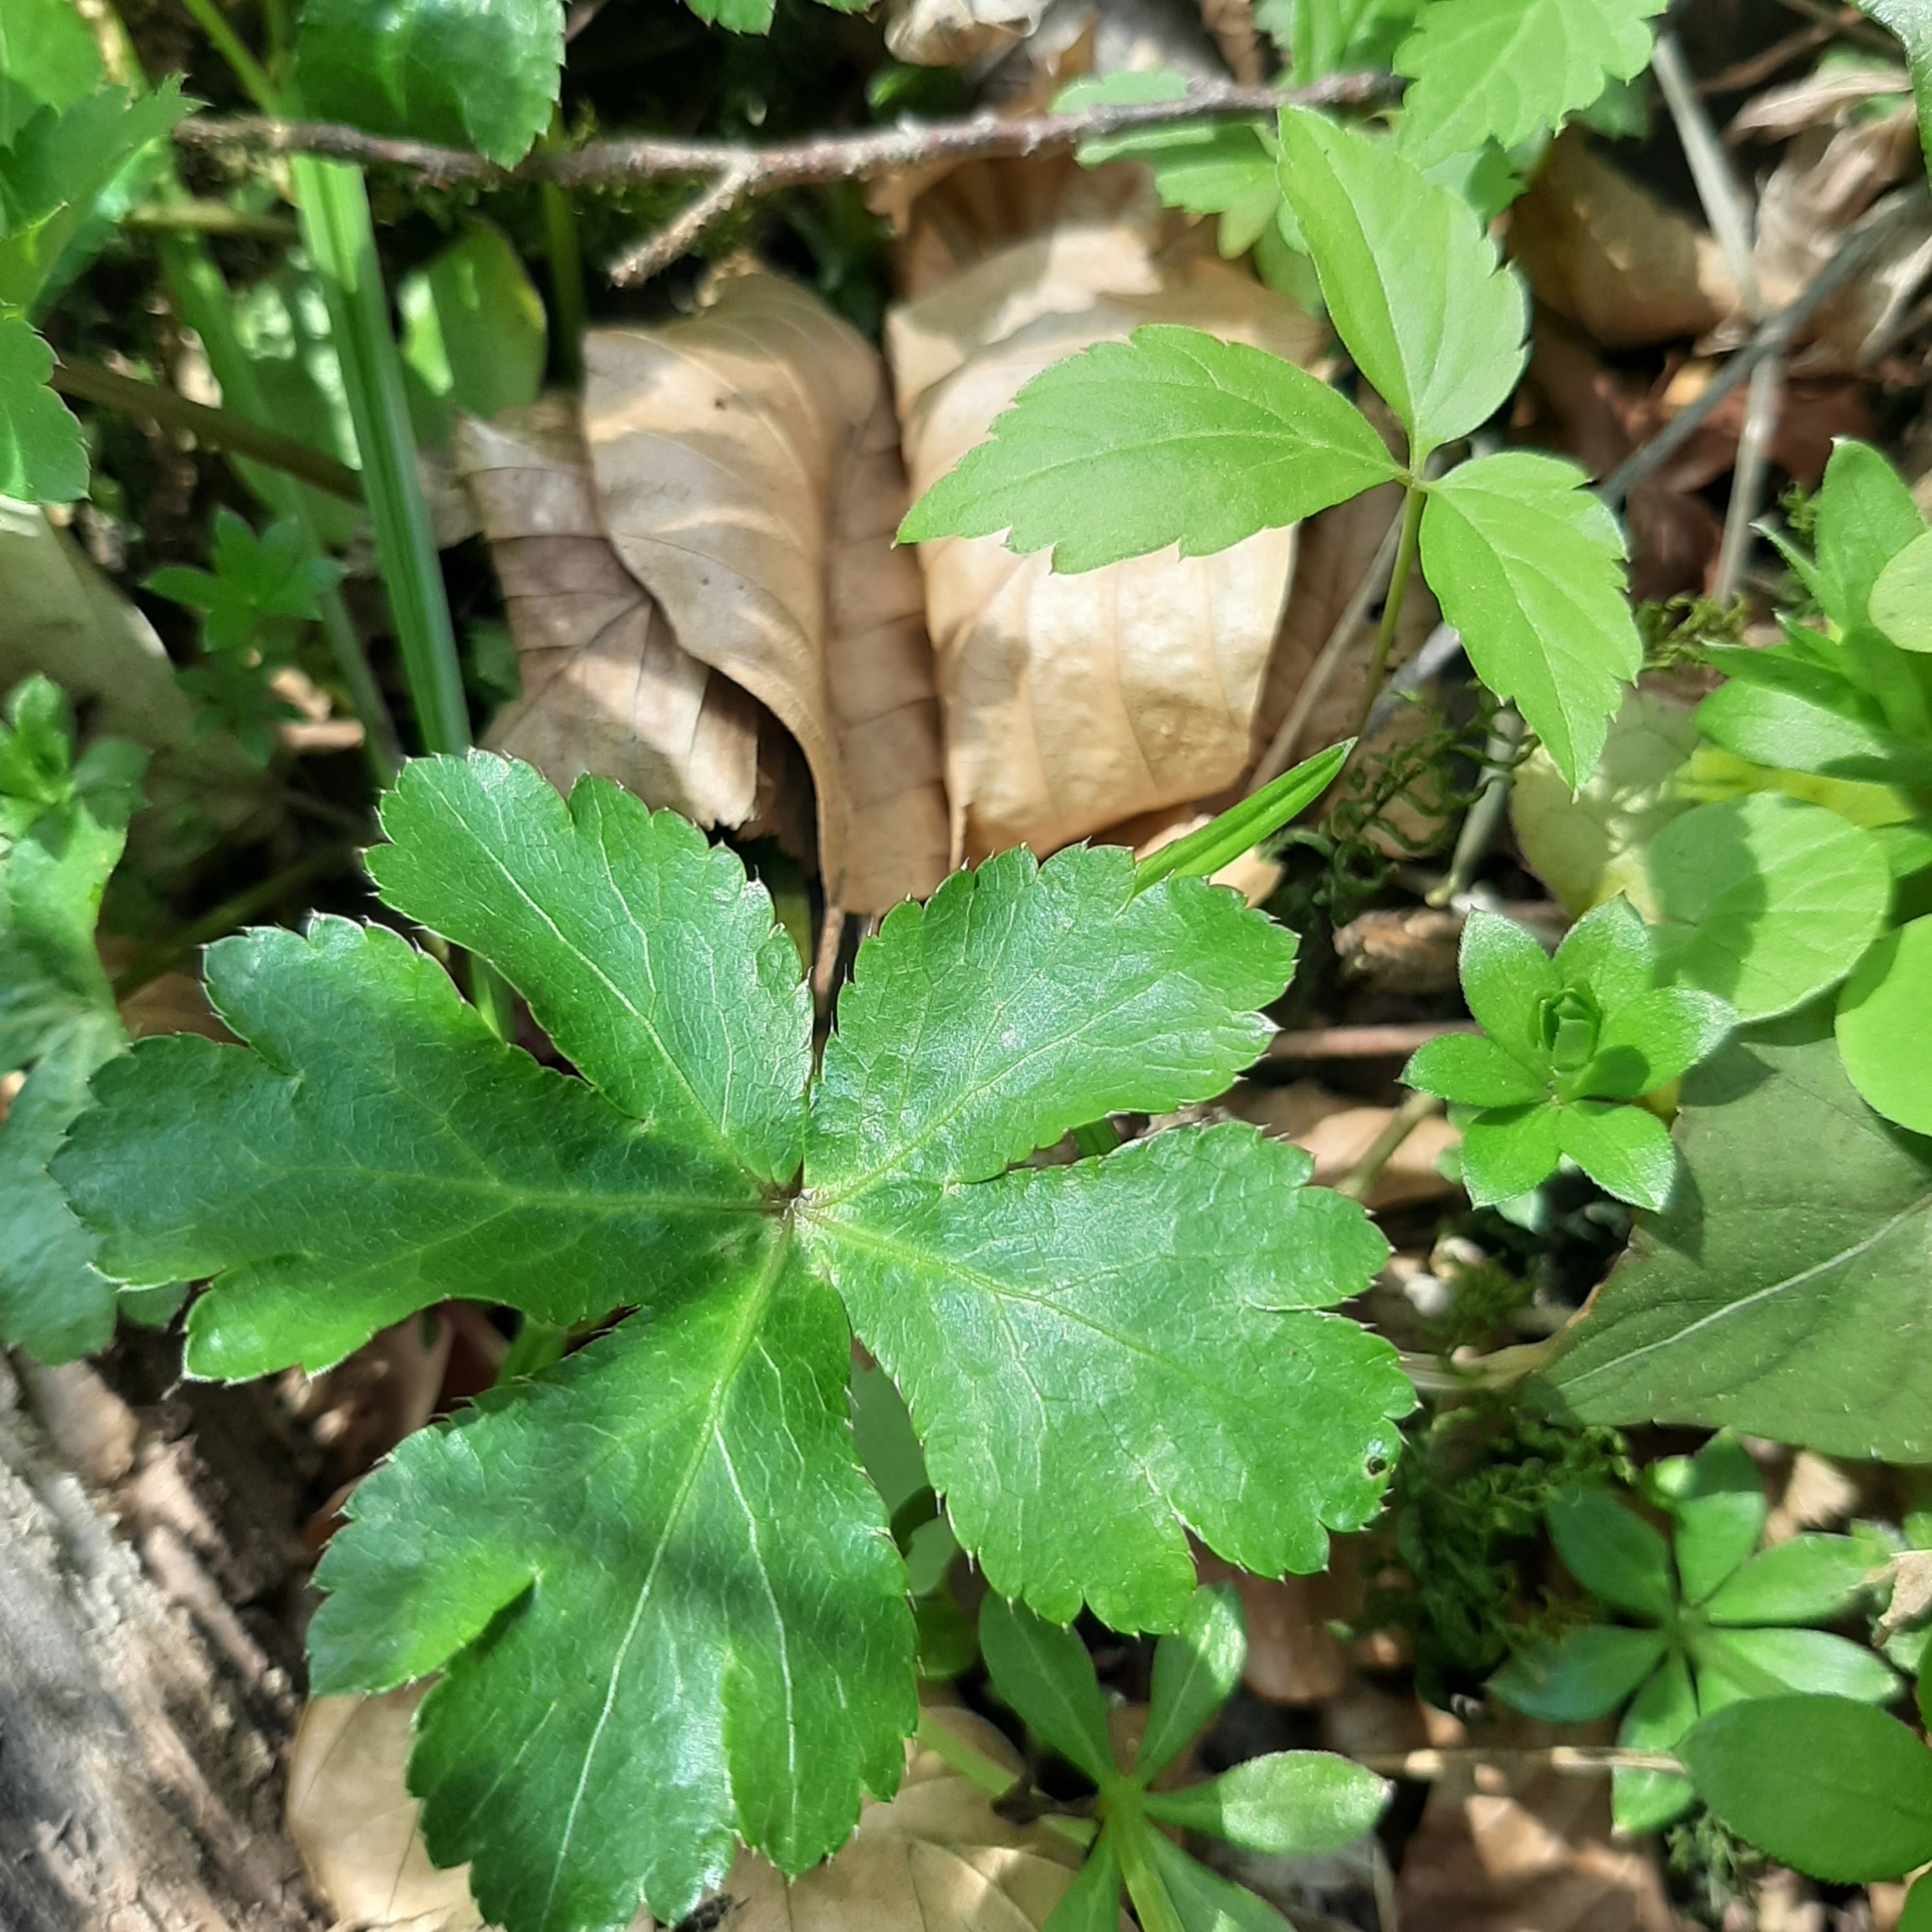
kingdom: Plantae
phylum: Tracheophyta
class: Magnoliopsida
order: Apiales
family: Apiaceae
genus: Sanicula
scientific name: Sanicula europaea
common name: Sanicle
